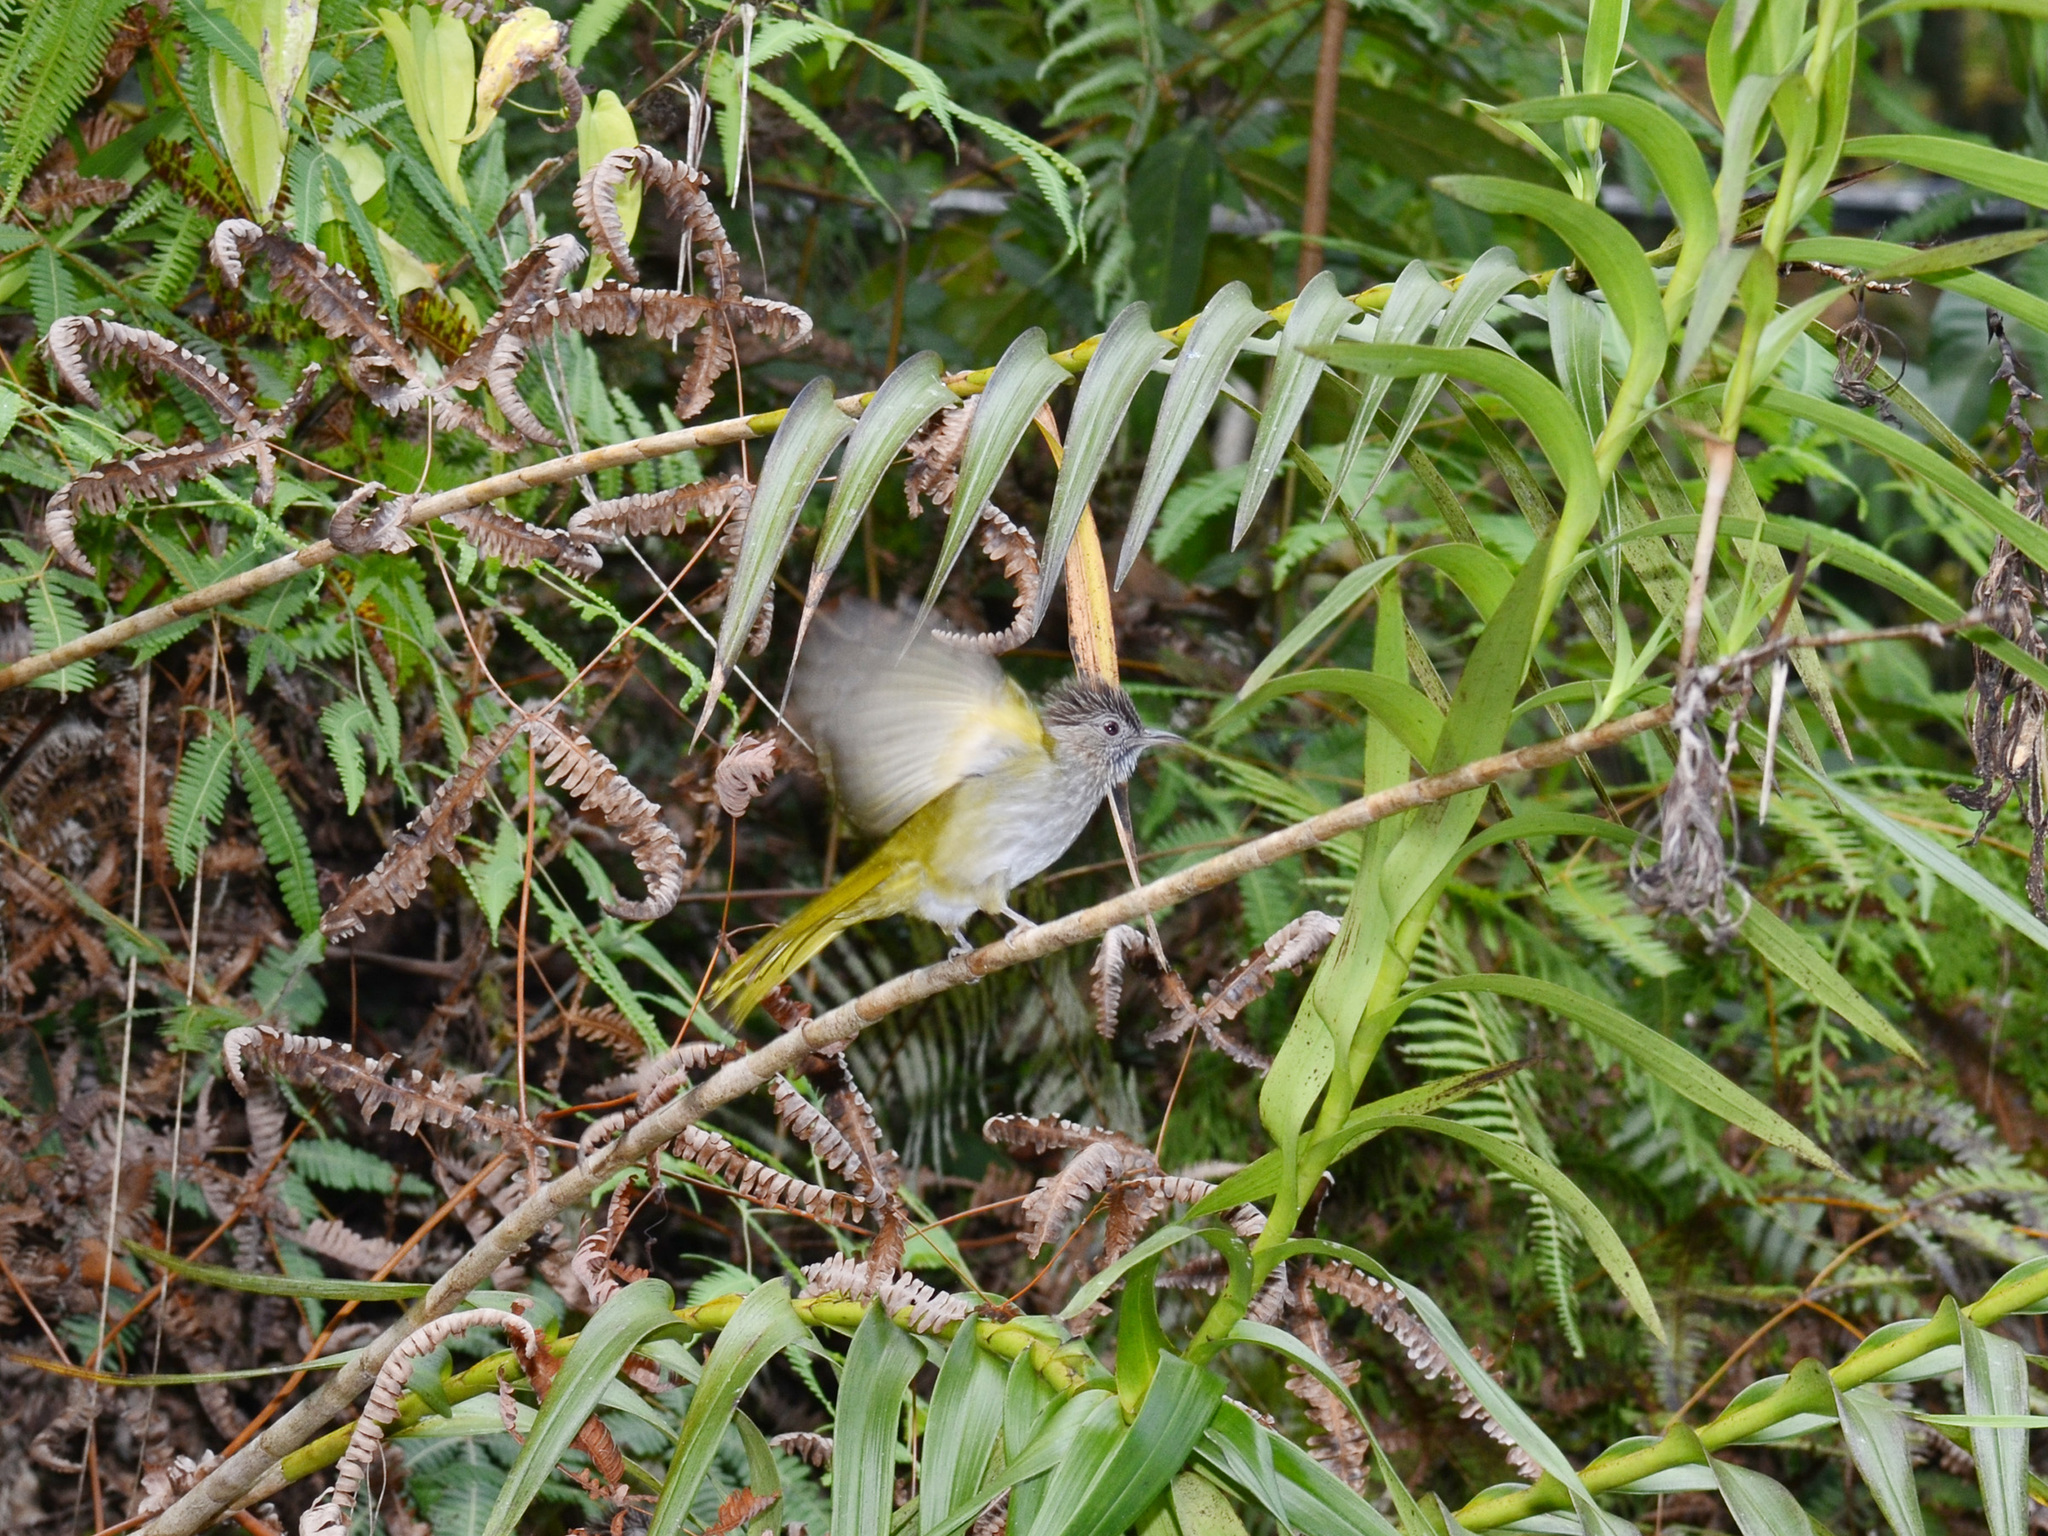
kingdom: Animalia
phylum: Chordata
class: Aves
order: Passeriformes
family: Pycnonotidae
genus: Ixos
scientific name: Ixos mcclellandii
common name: Mountain bulbul
